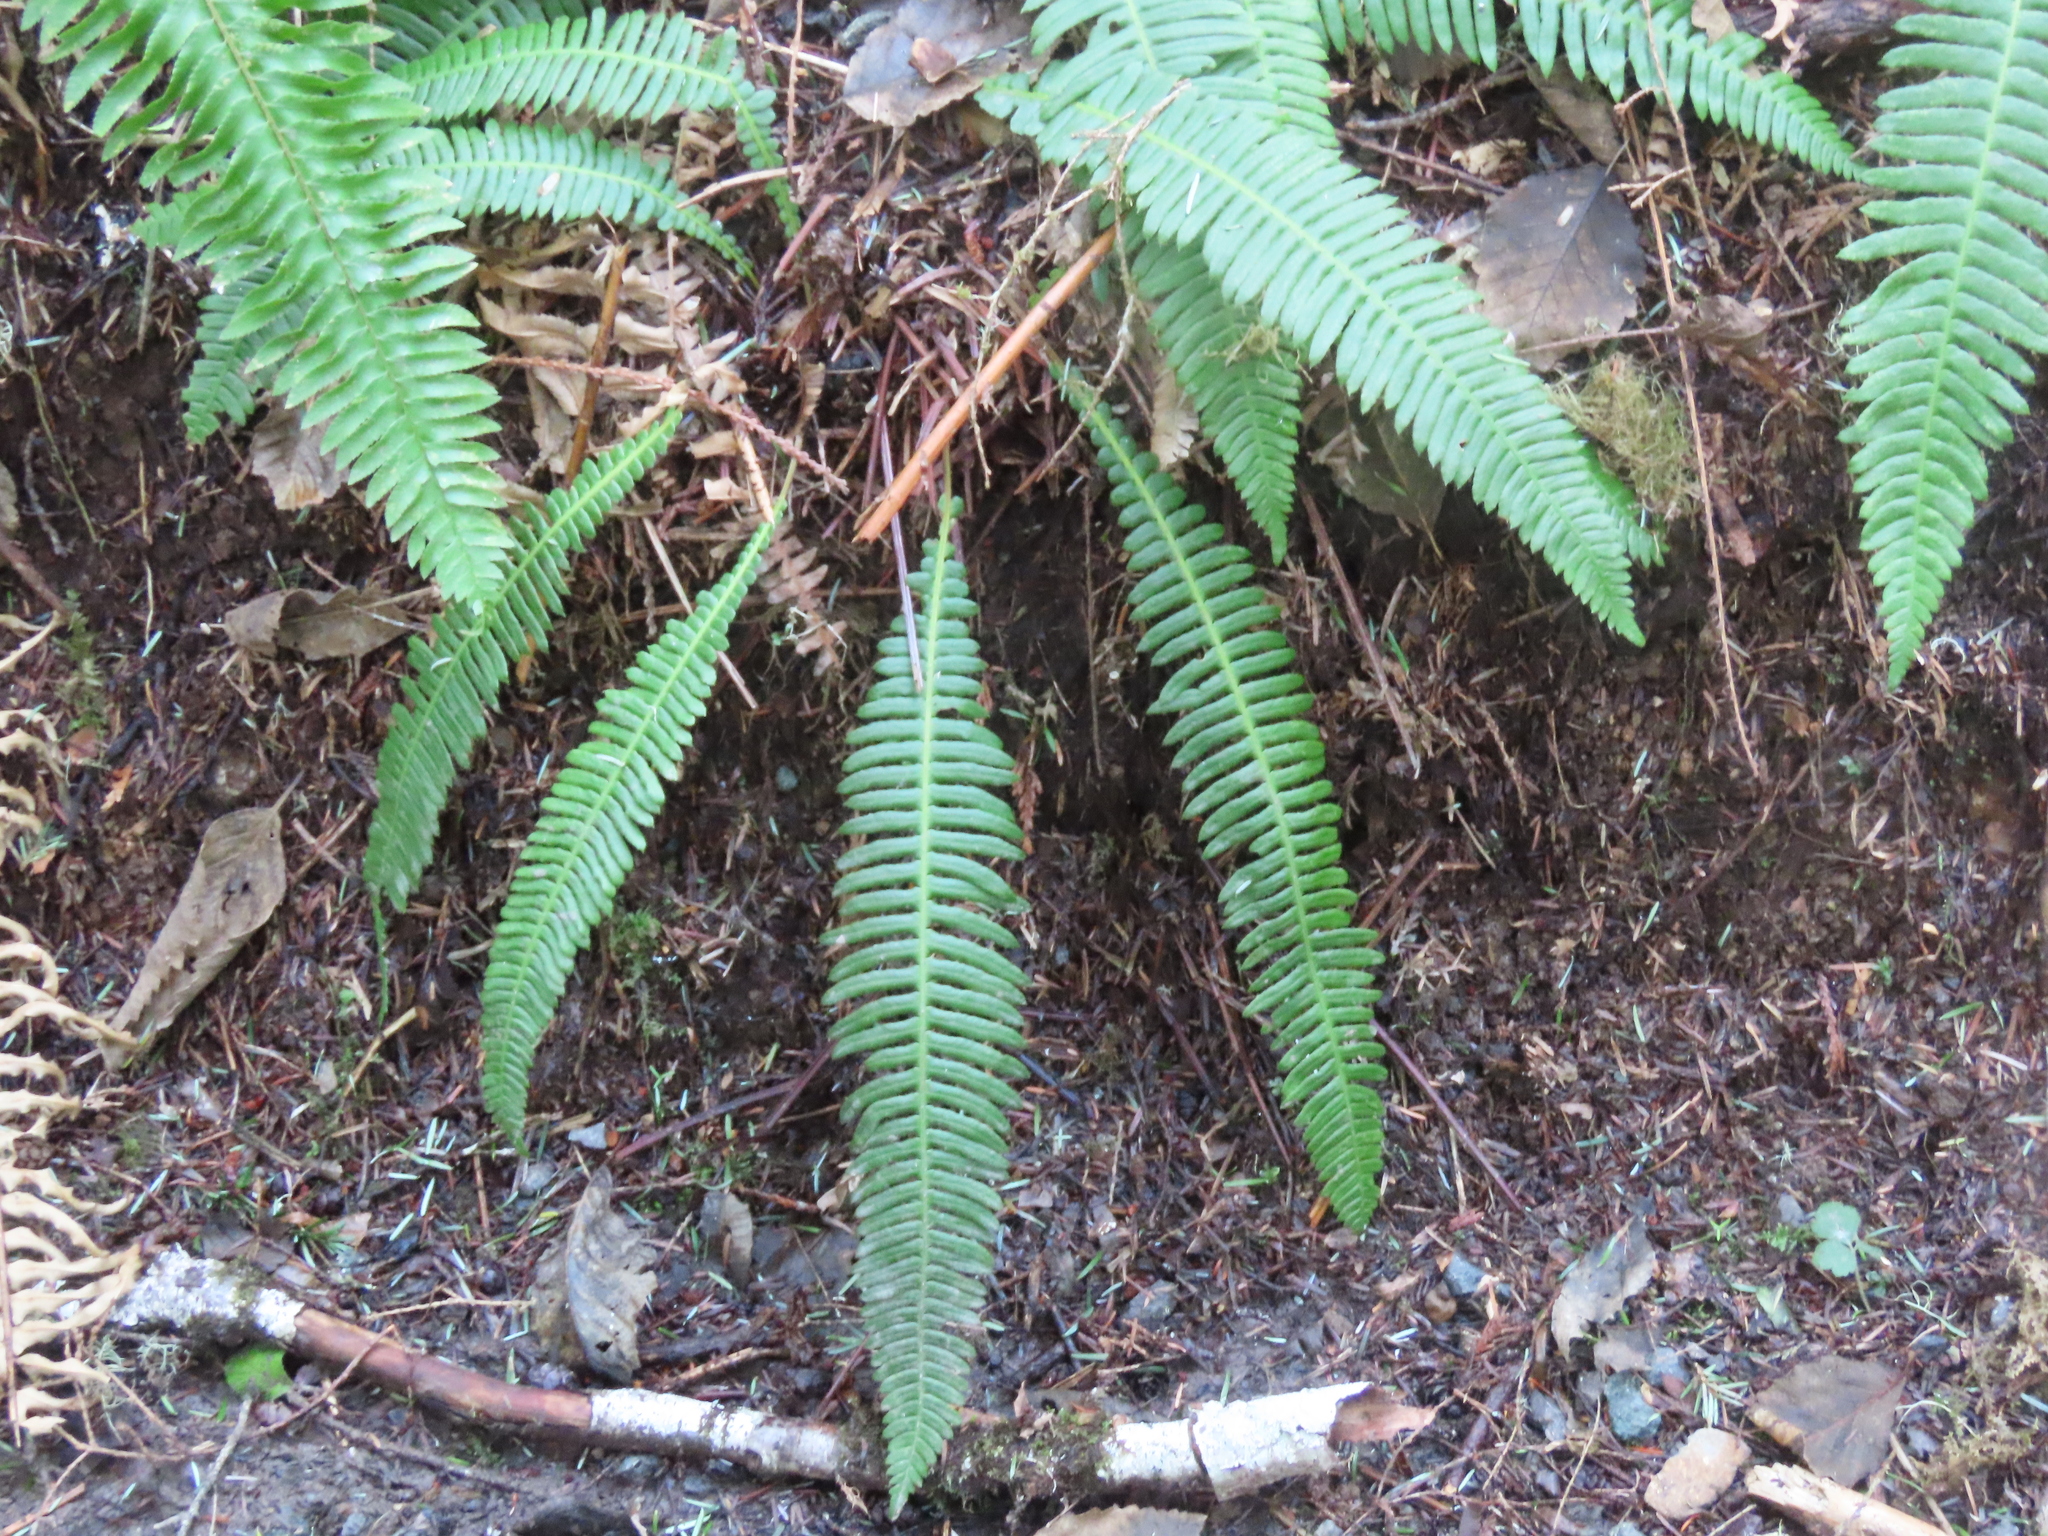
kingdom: Plantae
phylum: Tracheophyta
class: Polypodiopsida
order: Polypodiales
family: Blechnaceae
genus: Struthiopteris
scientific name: Struthiopteris spicant
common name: Deer fern
